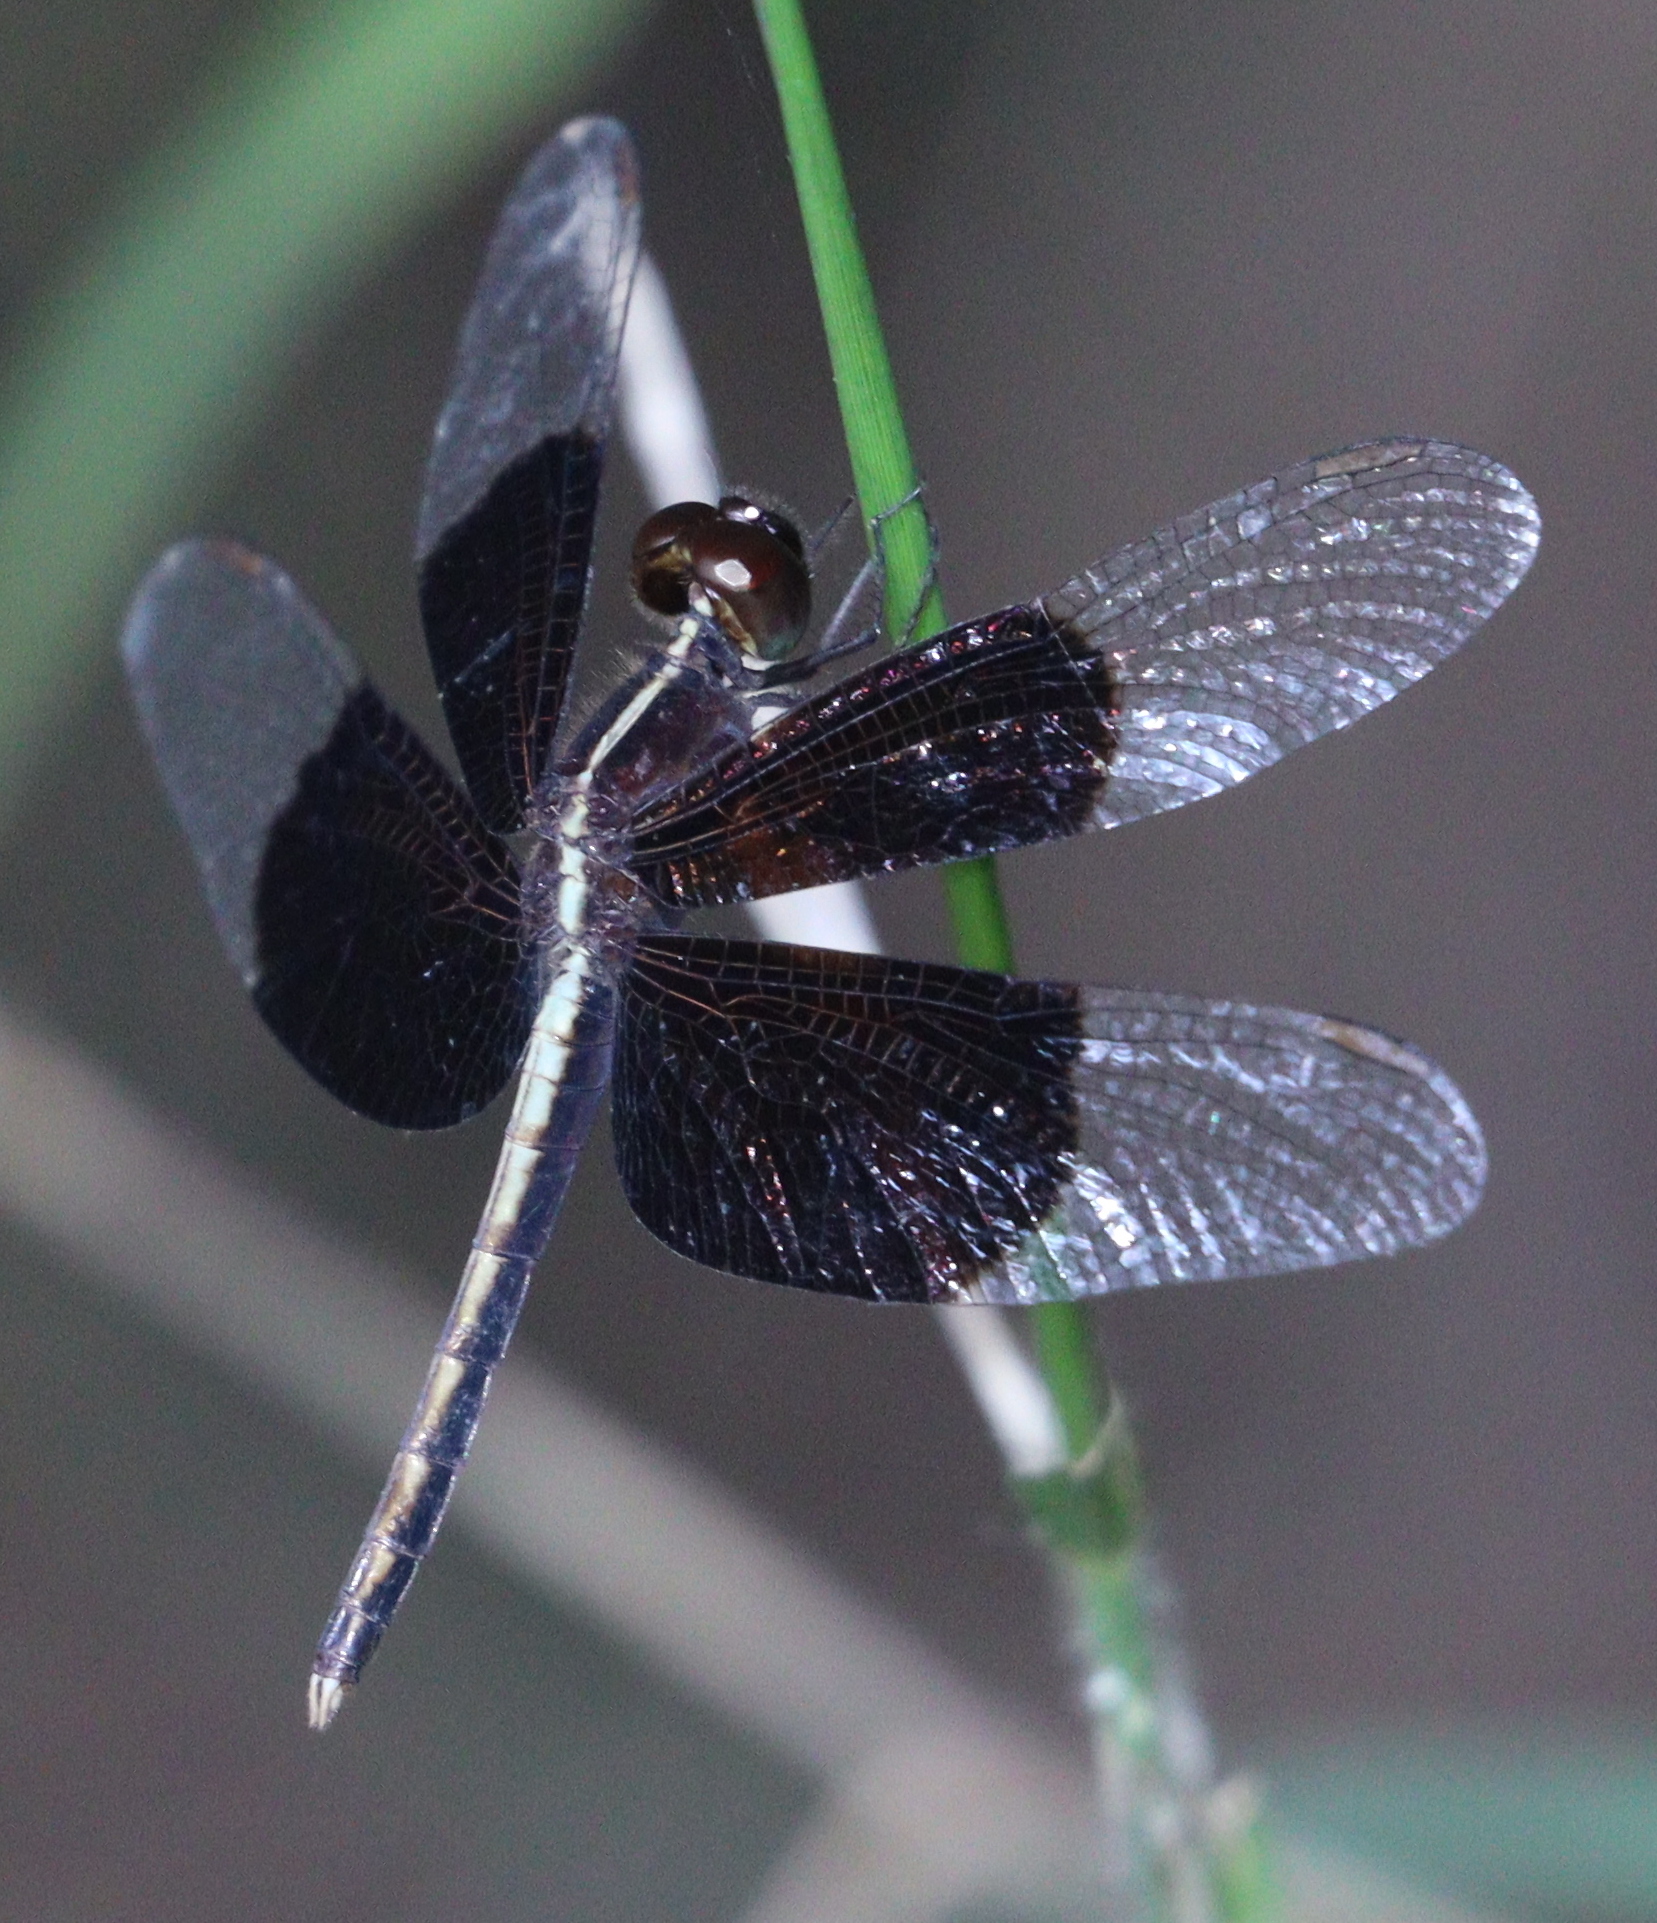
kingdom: Animalia
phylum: Arthropoda
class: Insecta
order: Odonata
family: Libellulidae
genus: Neurothemis
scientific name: Neurothemis tullia
